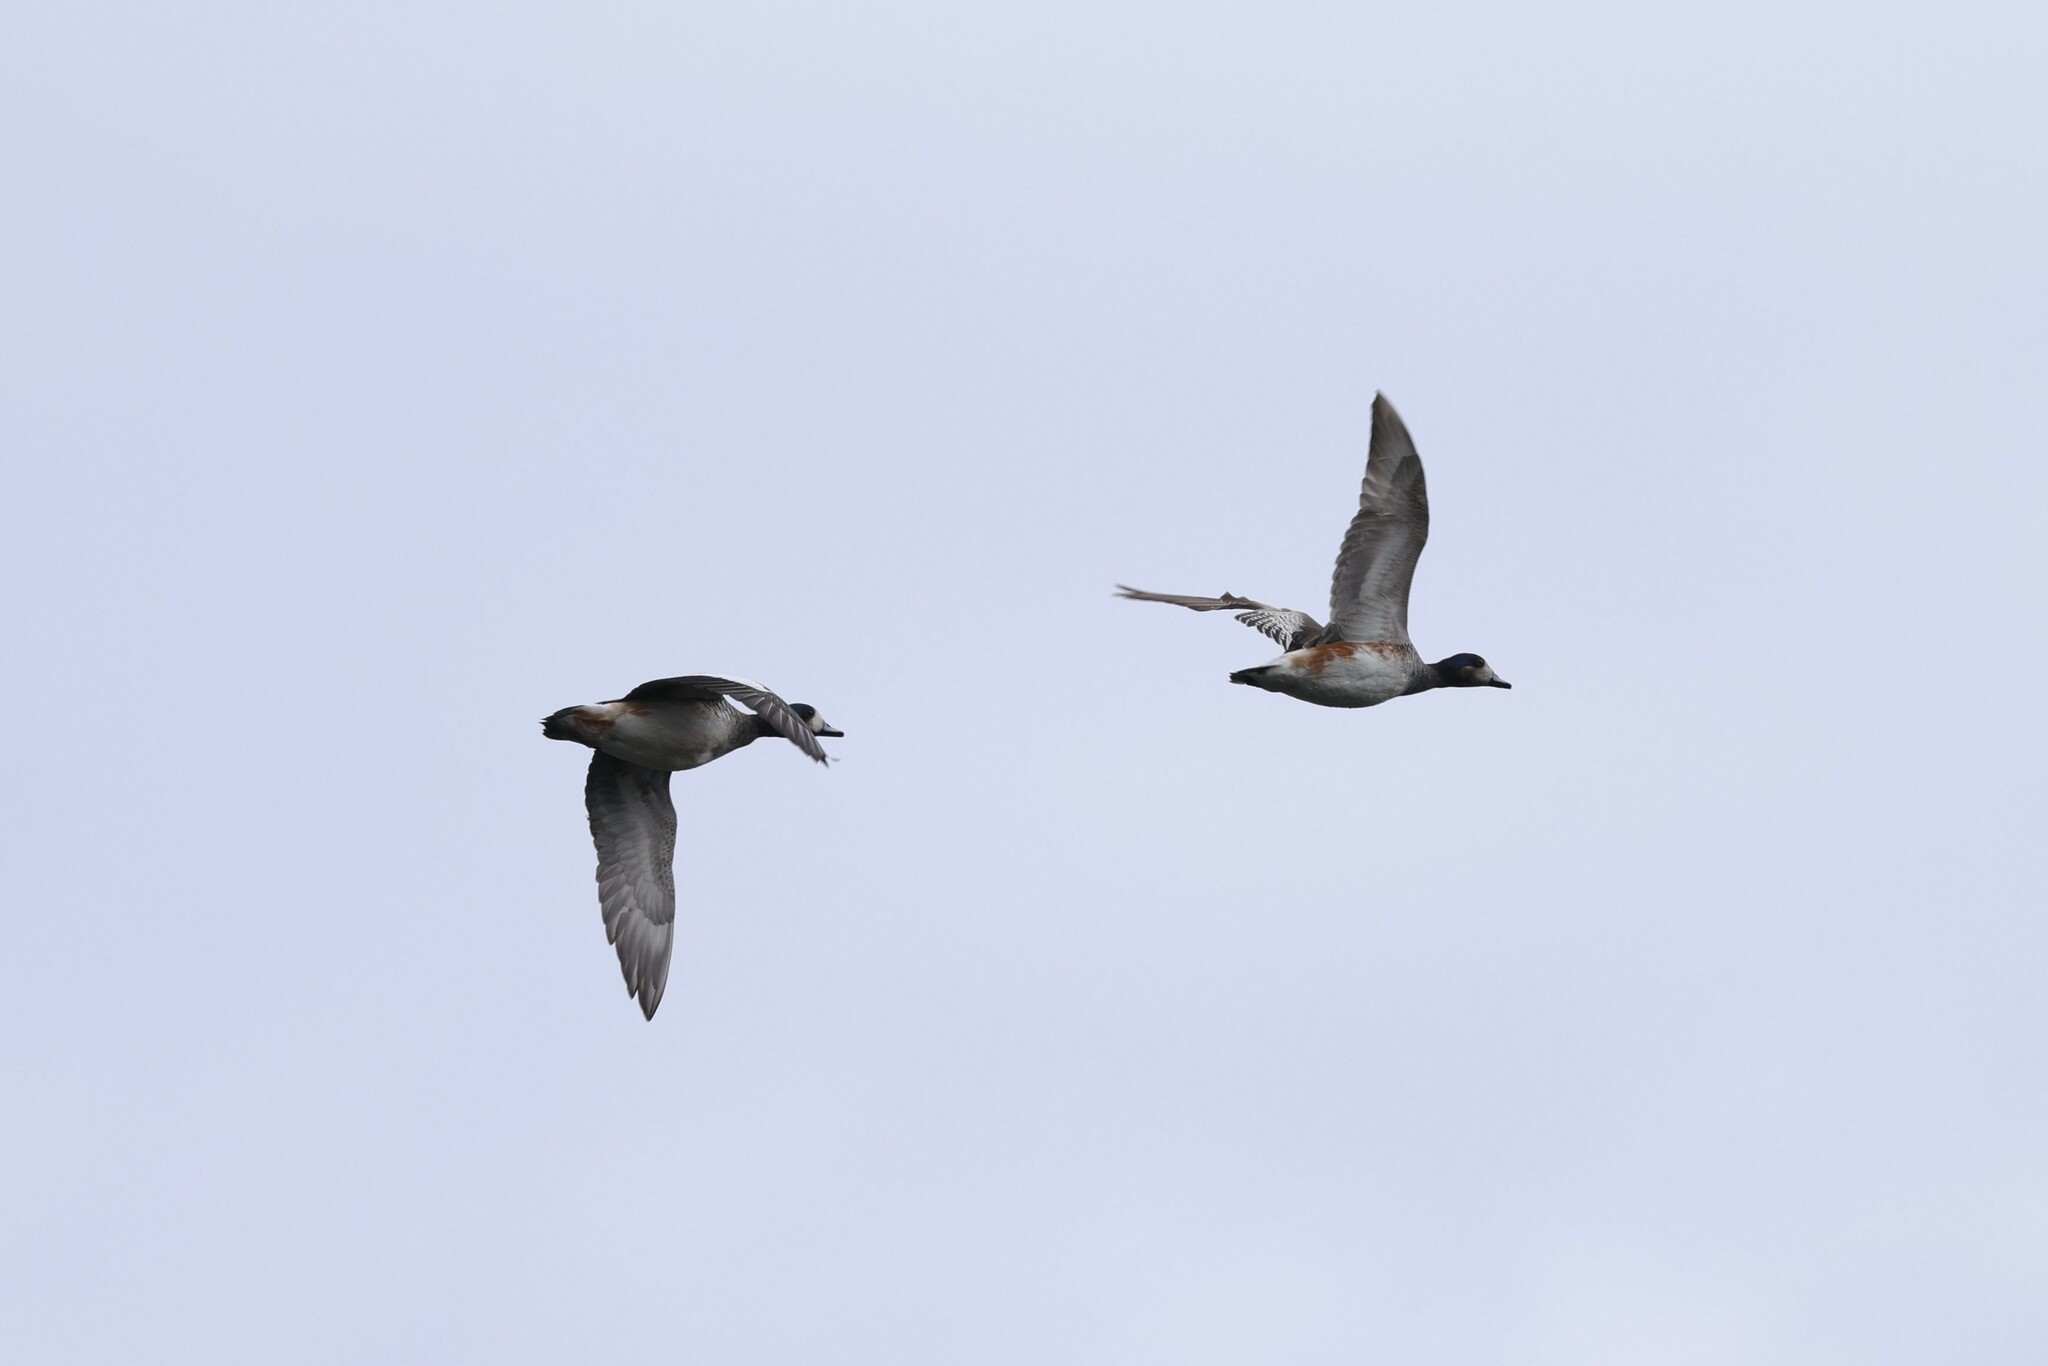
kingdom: Animalia
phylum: Chordata
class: Aves
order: Anseriformes
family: Anatidae
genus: Mareca
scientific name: Mareca sibilatrix
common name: Chiloe wigeon
